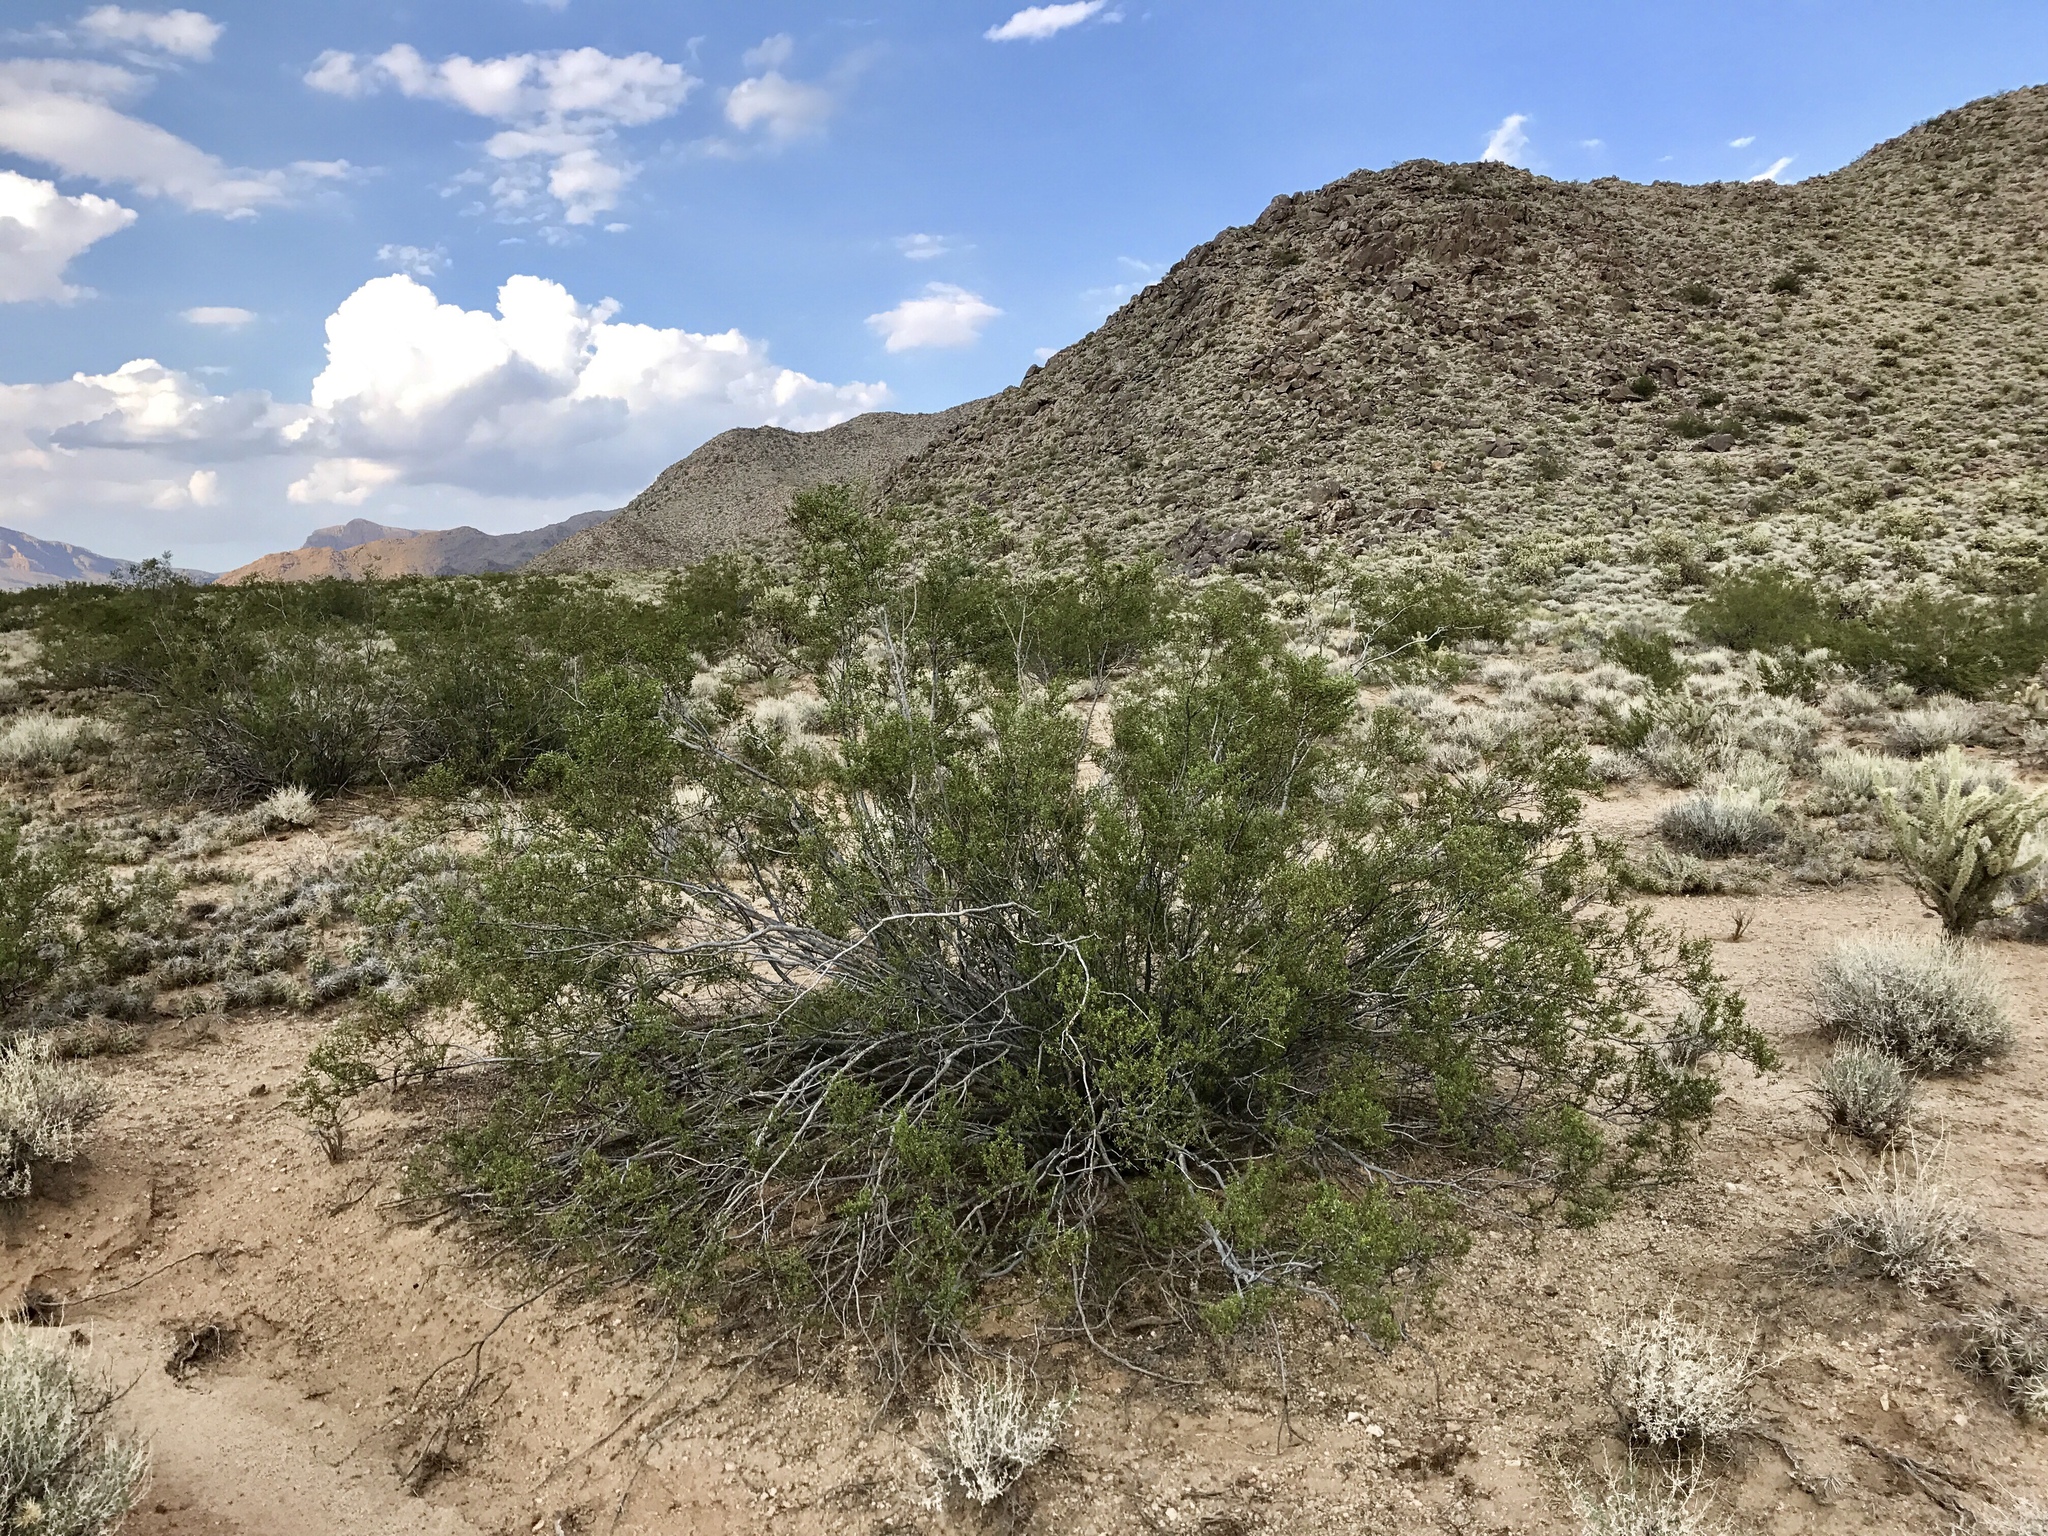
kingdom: Plantae
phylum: Tracheophyta
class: Magnoliopsida
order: Zygophyllales
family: Zygophyllaceae
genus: Larrea
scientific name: Larrea tridentata
